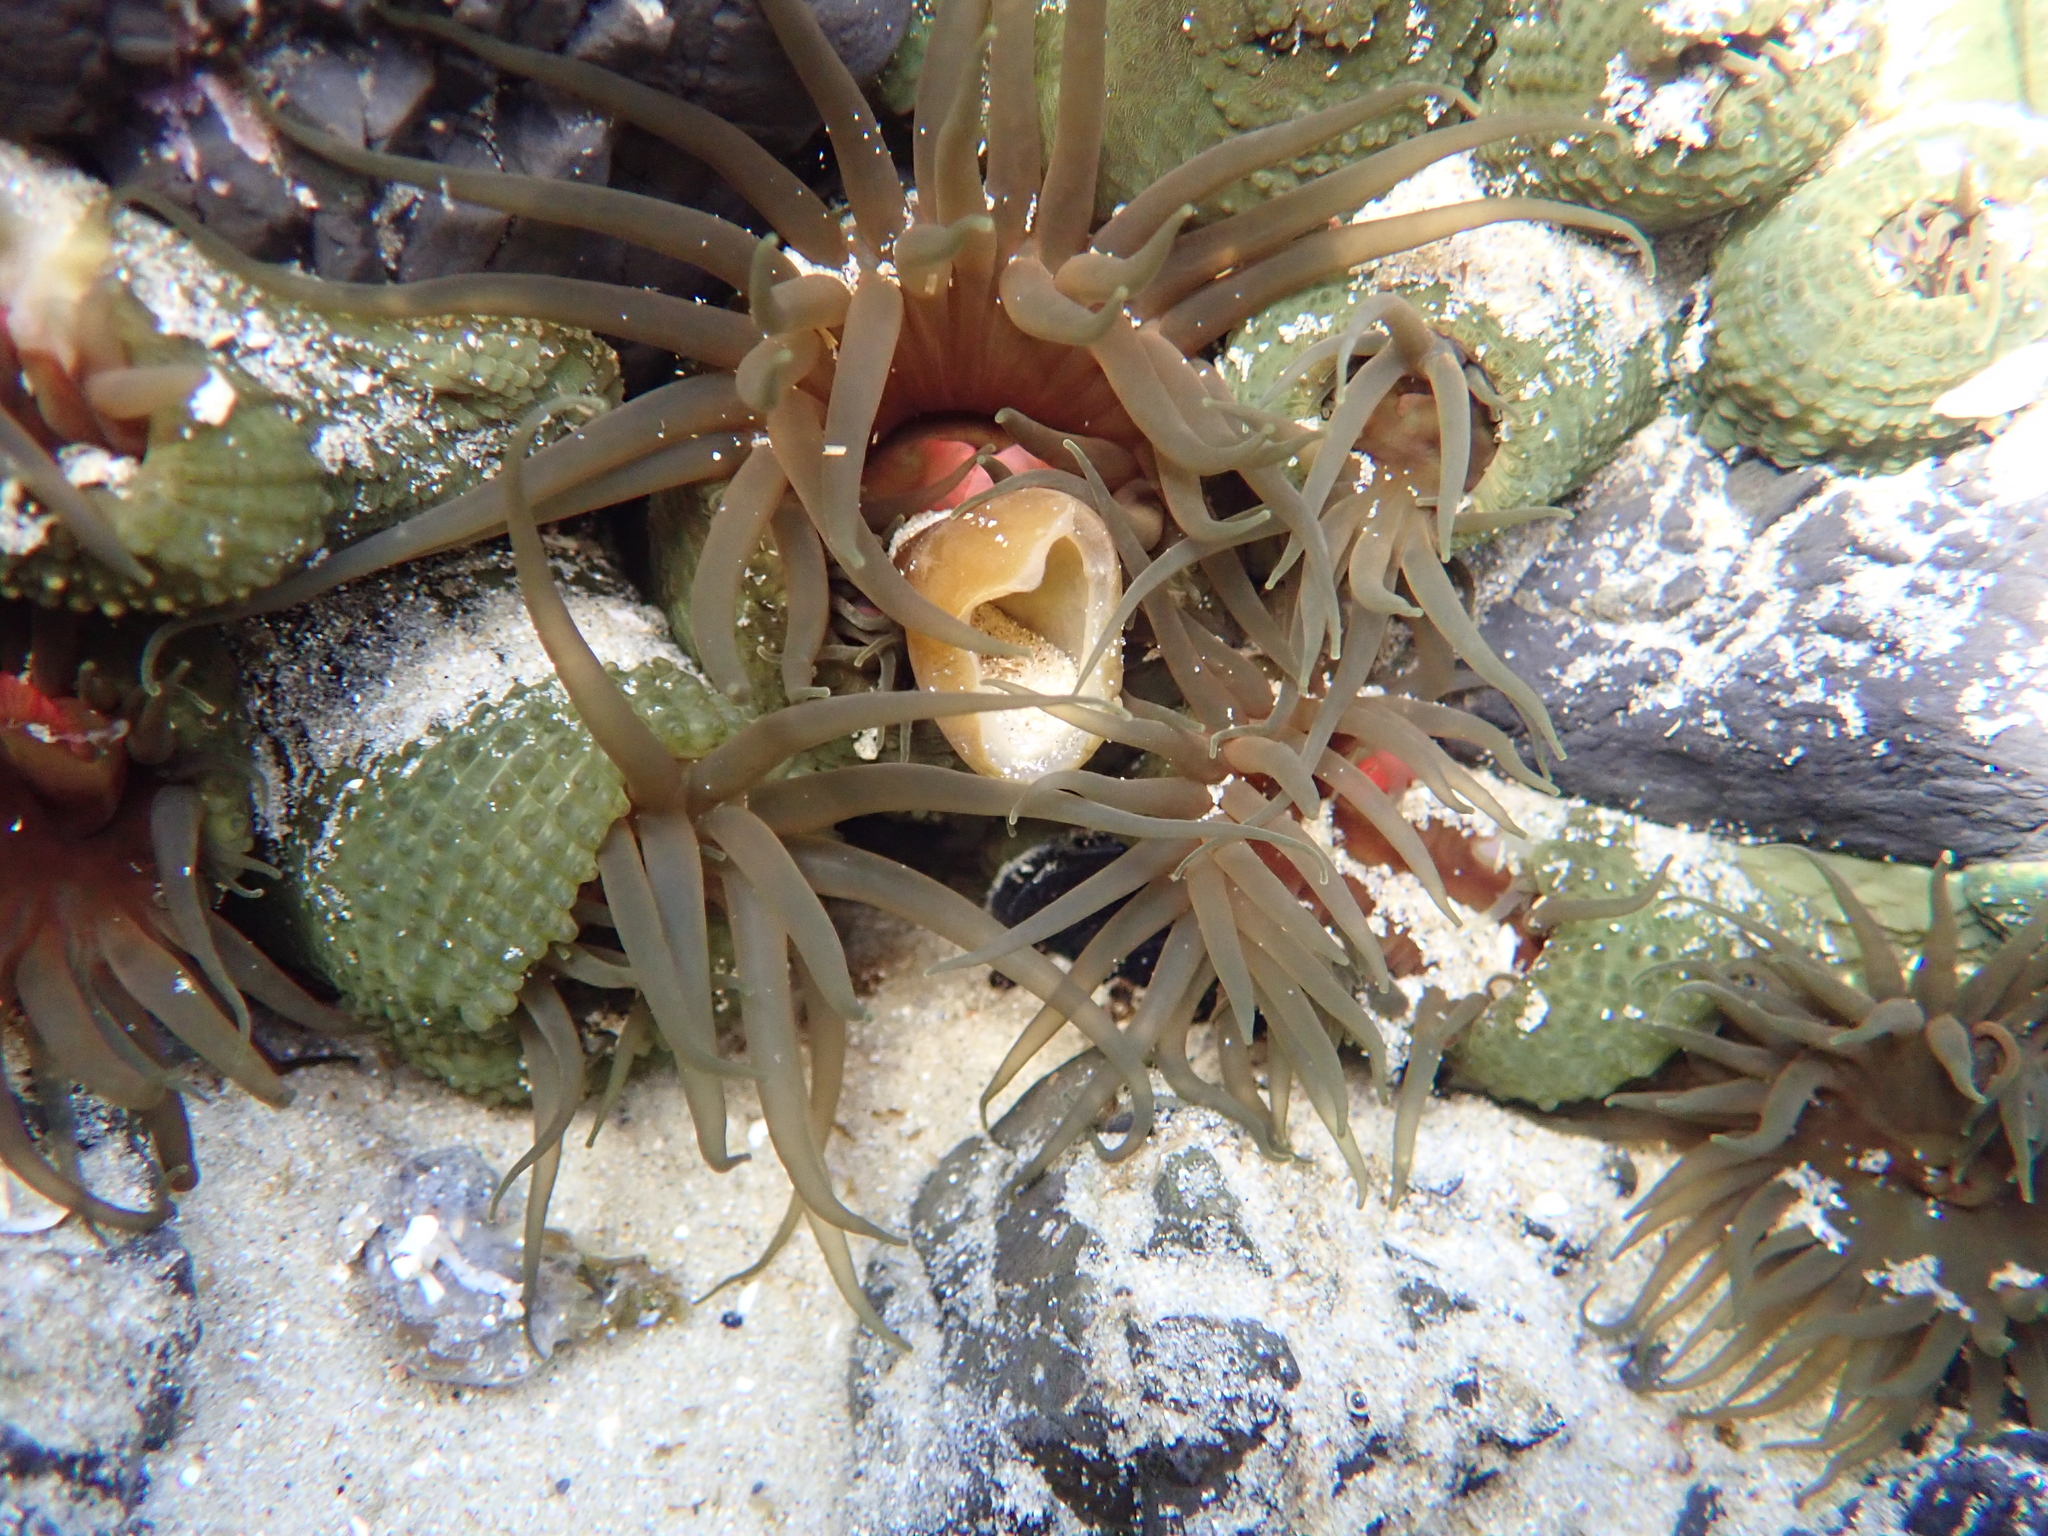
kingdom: Animalia
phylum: Cnidaria
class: Anthozoa
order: Actiniaria
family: Actiniidae
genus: Isactinia
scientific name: Isactinia olivacea
